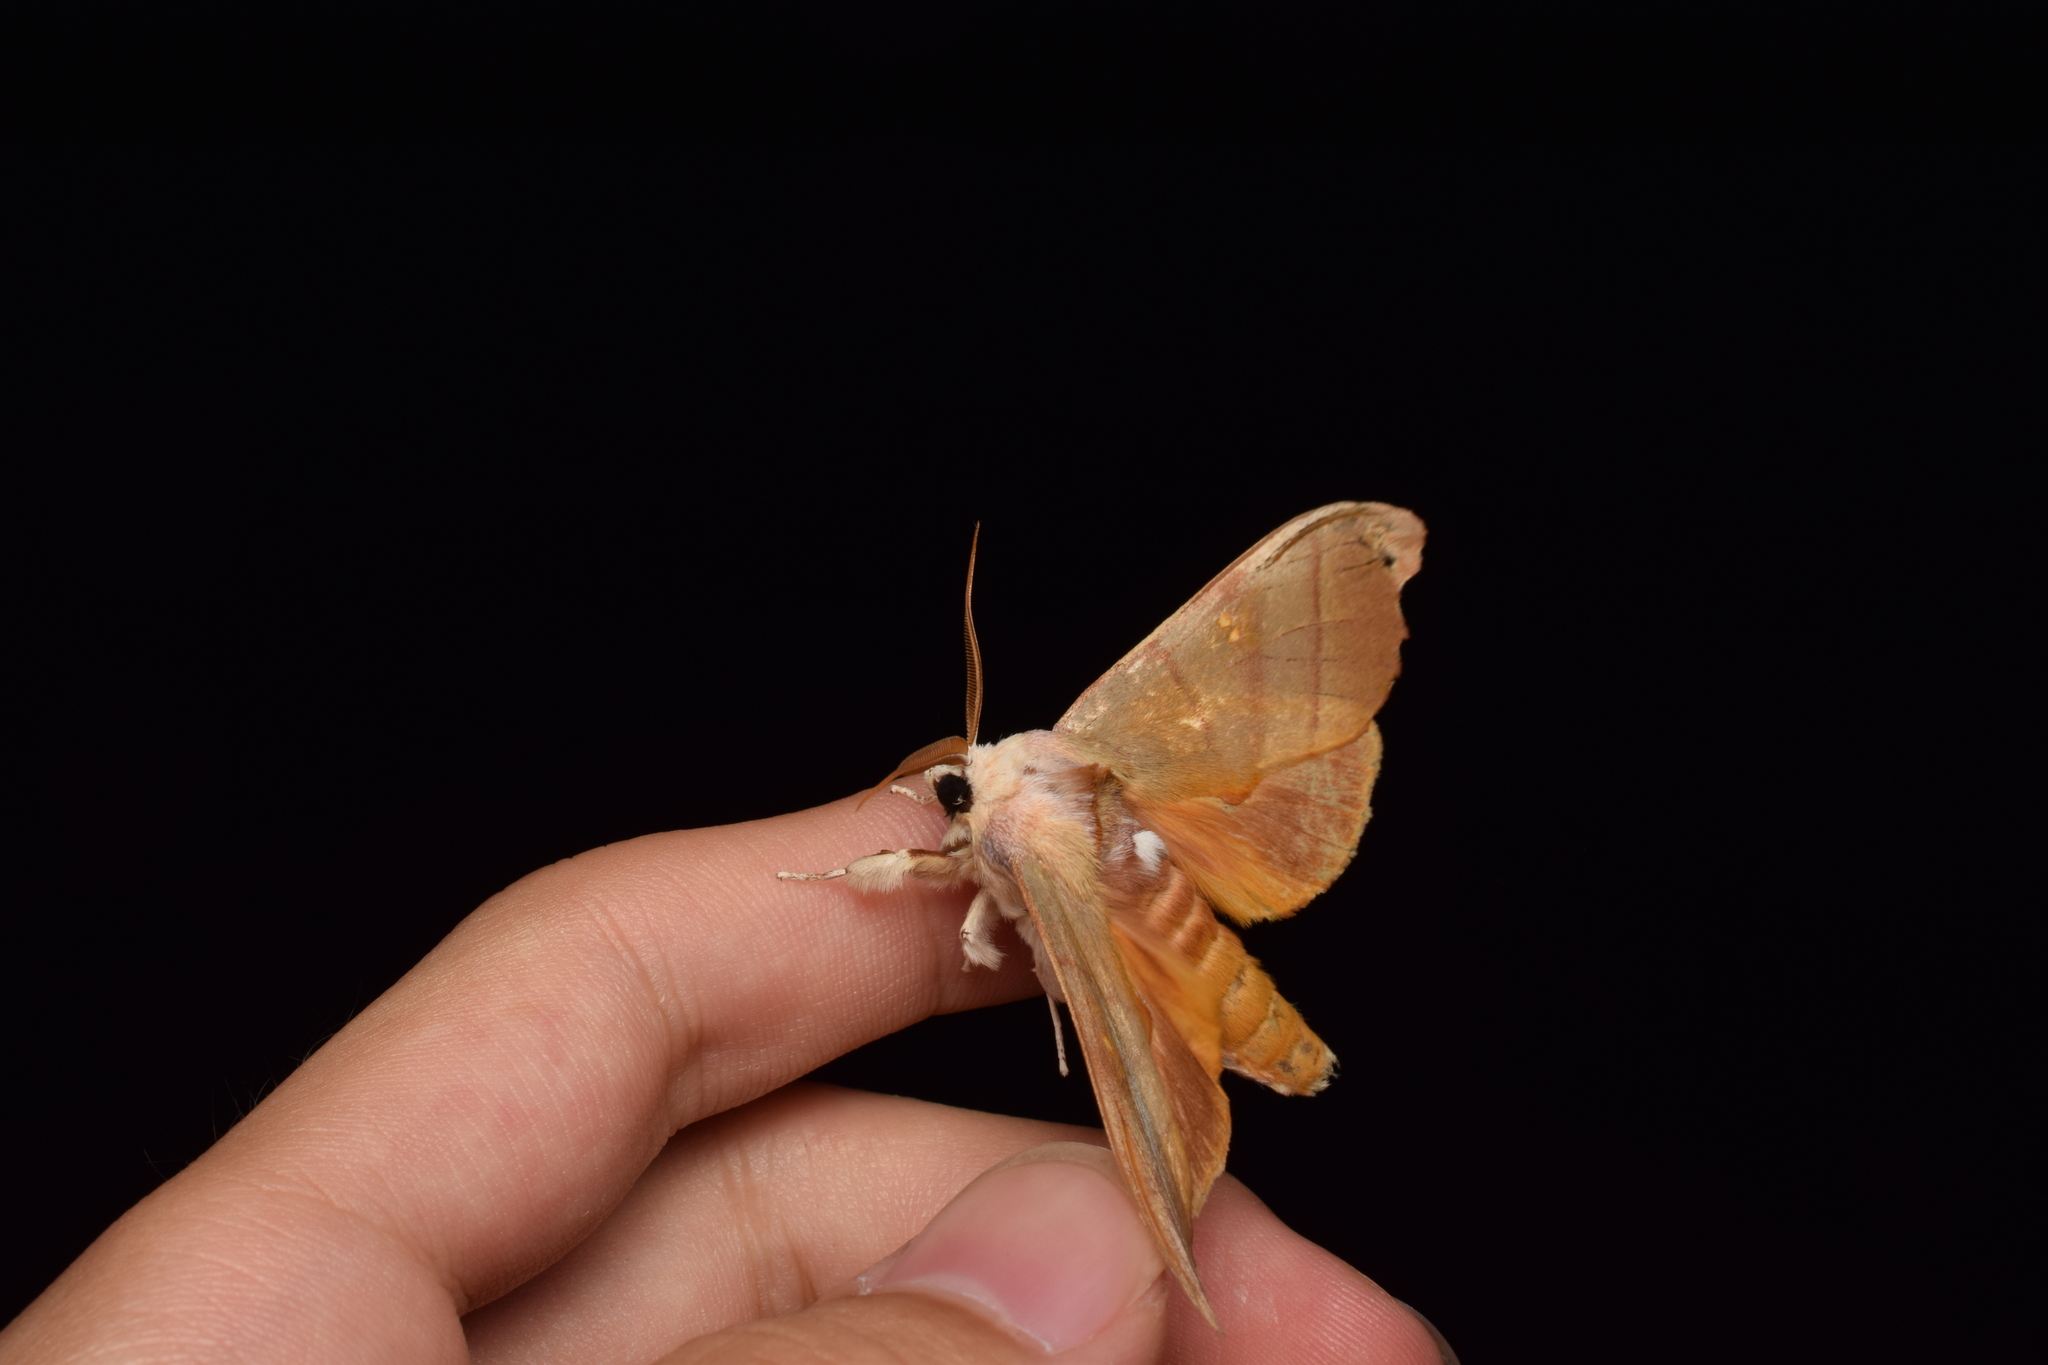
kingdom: Animalia
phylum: Arthropoda
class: Insecta
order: Lepidoptera
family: Notodontidae
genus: Euhampsonia
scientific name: Euhampsonia cristata
